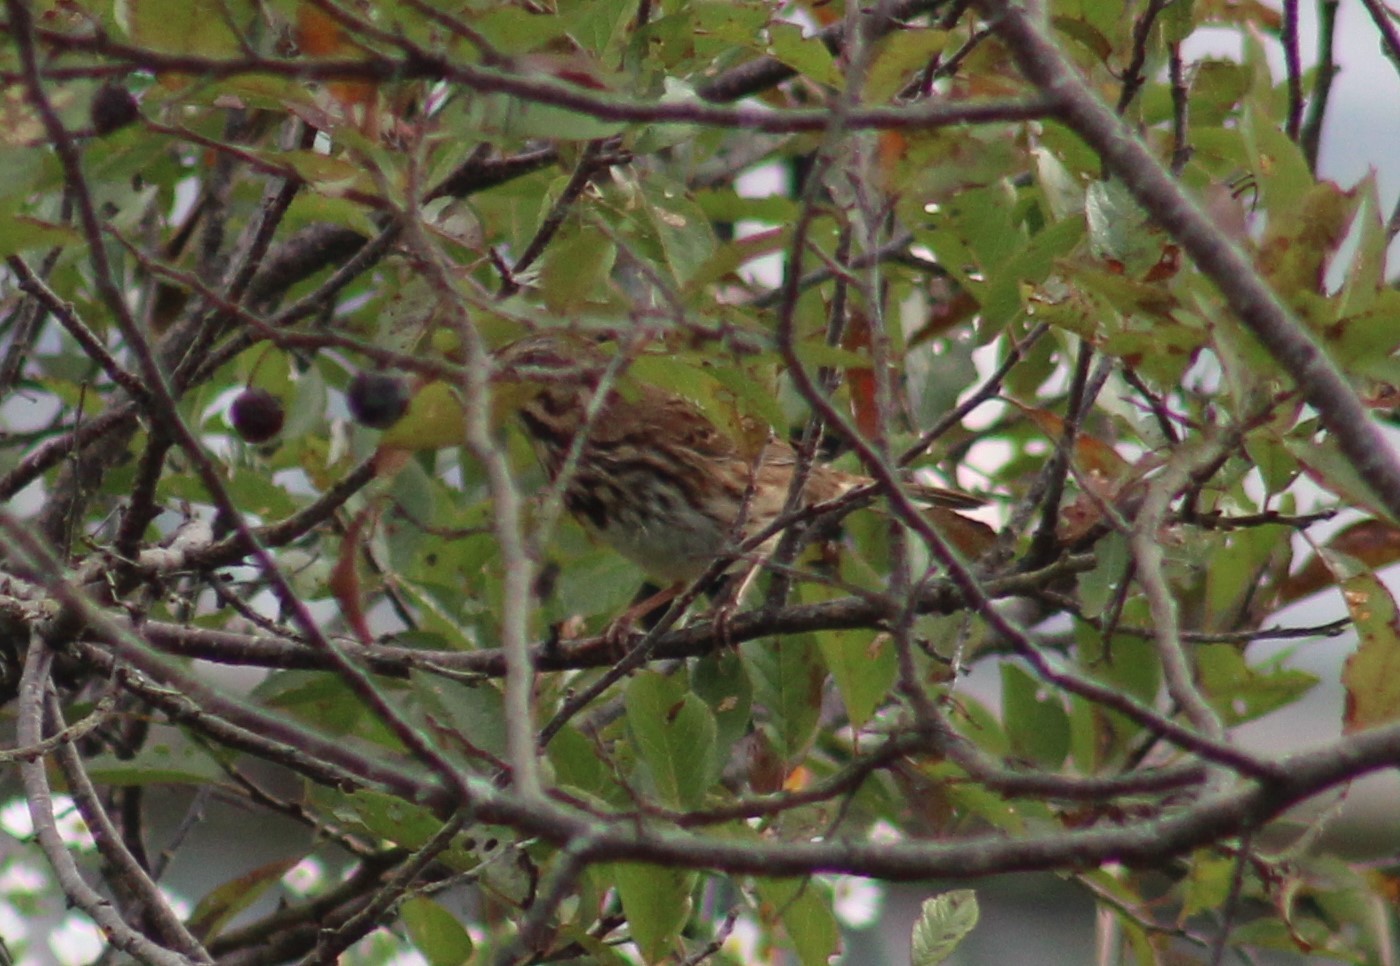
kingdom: Animalia
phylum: Chordata
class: Aves
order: Passeriformes
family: Passerellidae
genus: Melospiza
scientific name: Melospiza melodia
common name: Song sparrow
